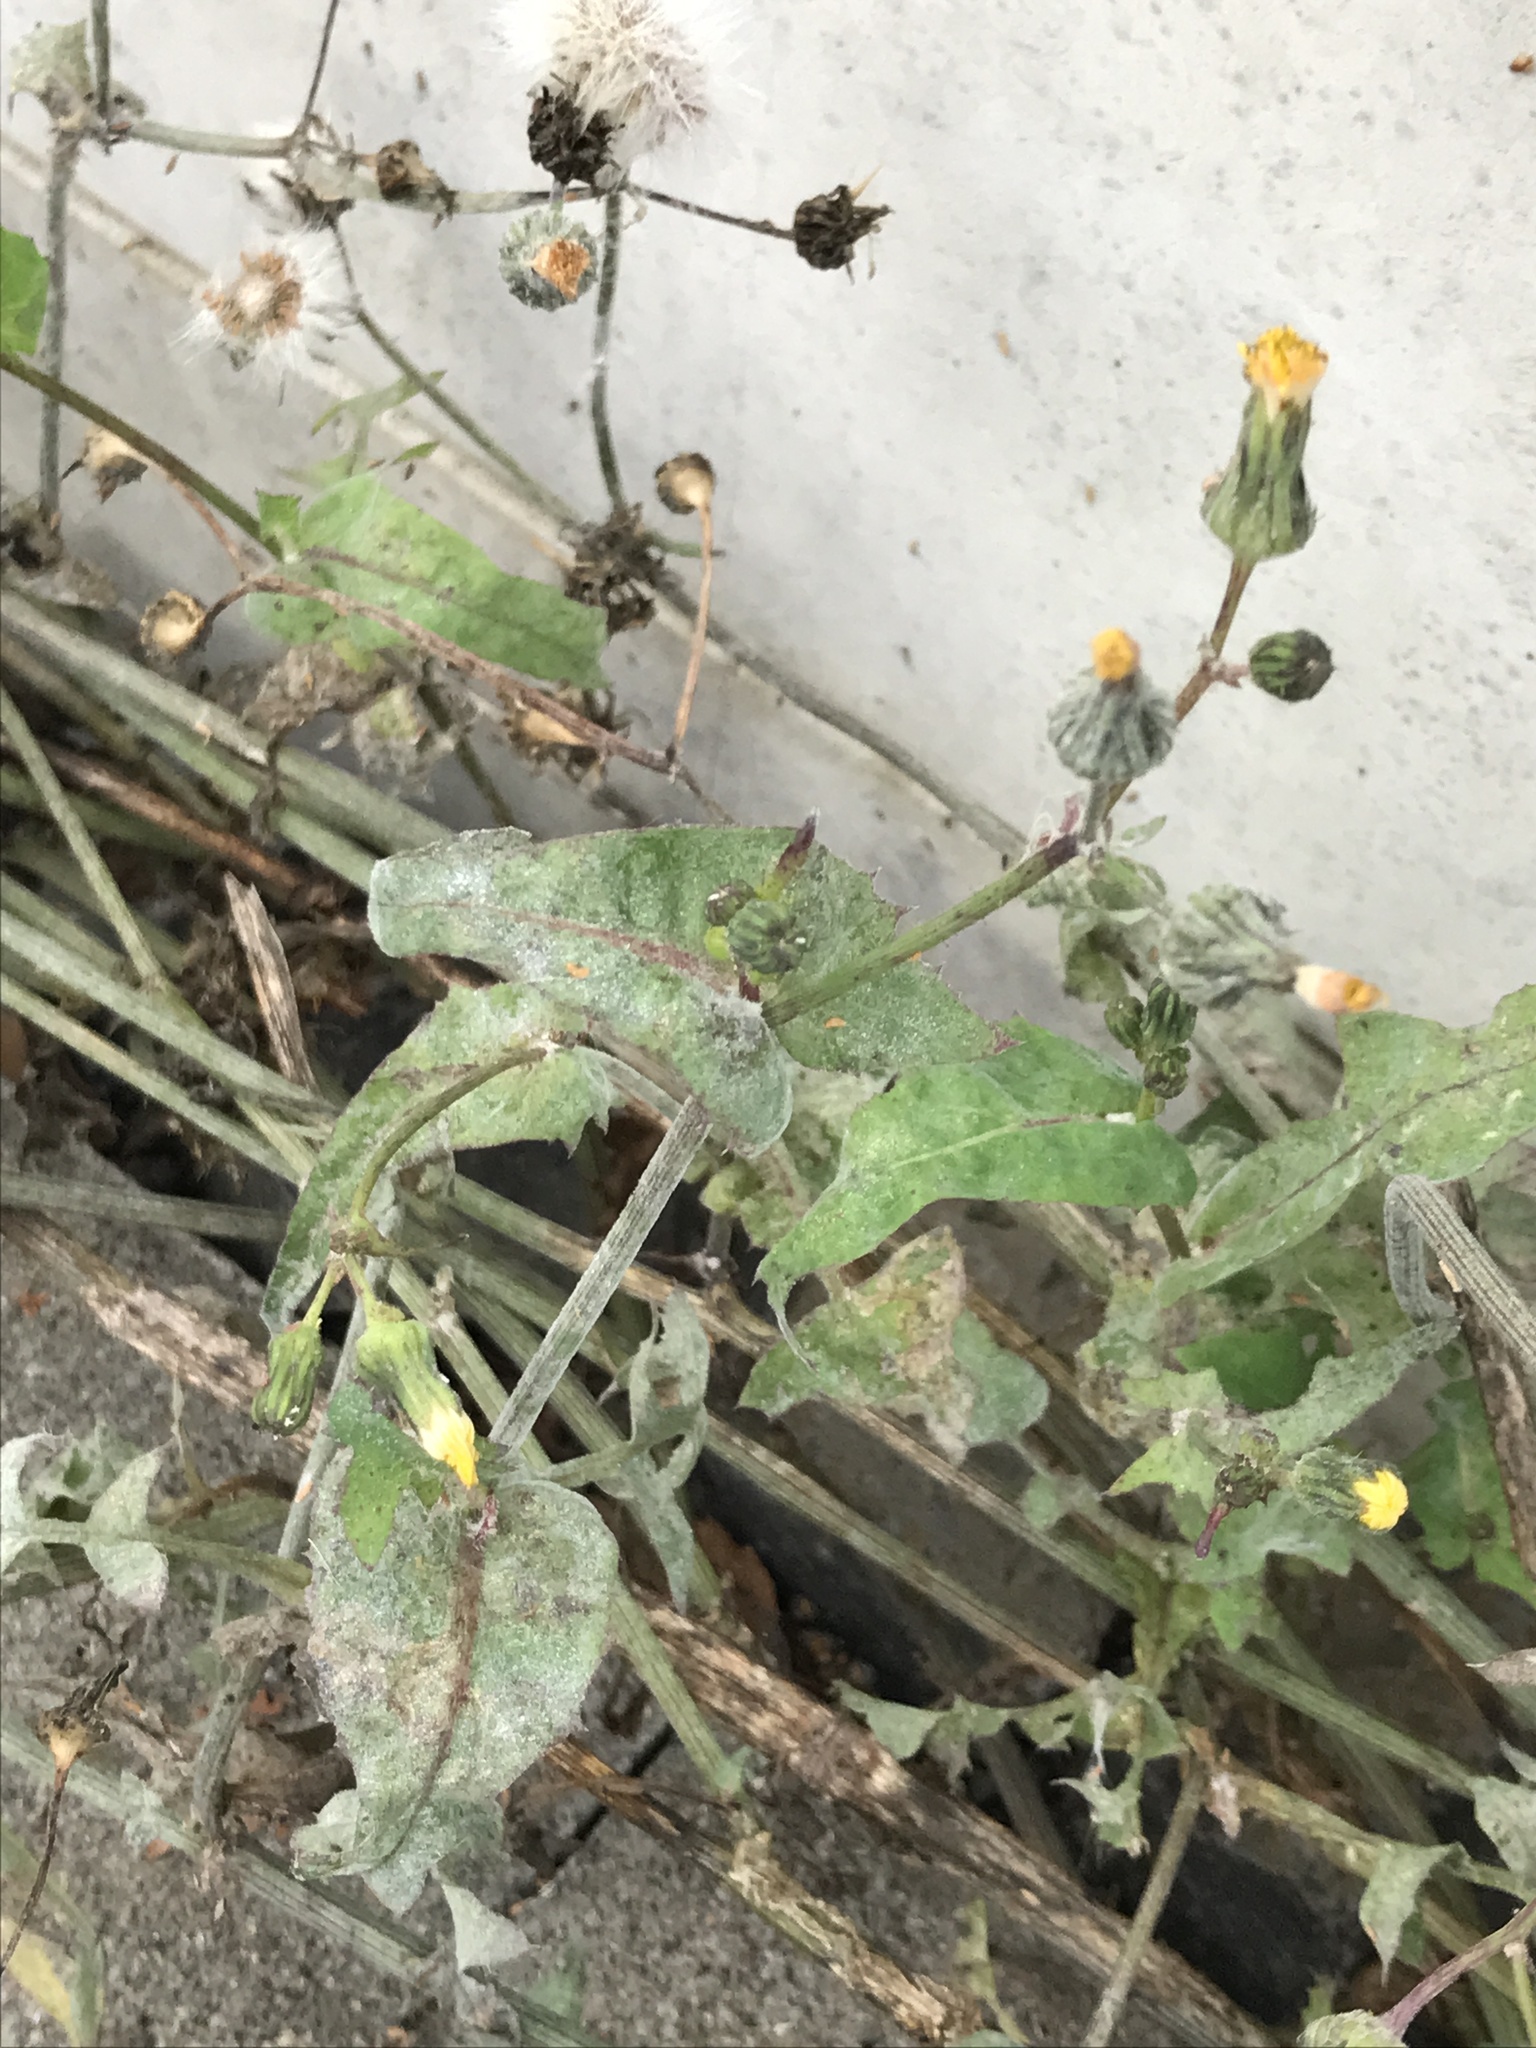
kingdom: Plantae
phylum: Tracheophyta
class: Magnoliopsida
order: Asterales
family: Asteraceae
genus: Sonchus
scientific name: Sonchus oleraceus
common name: Common sowthistle
